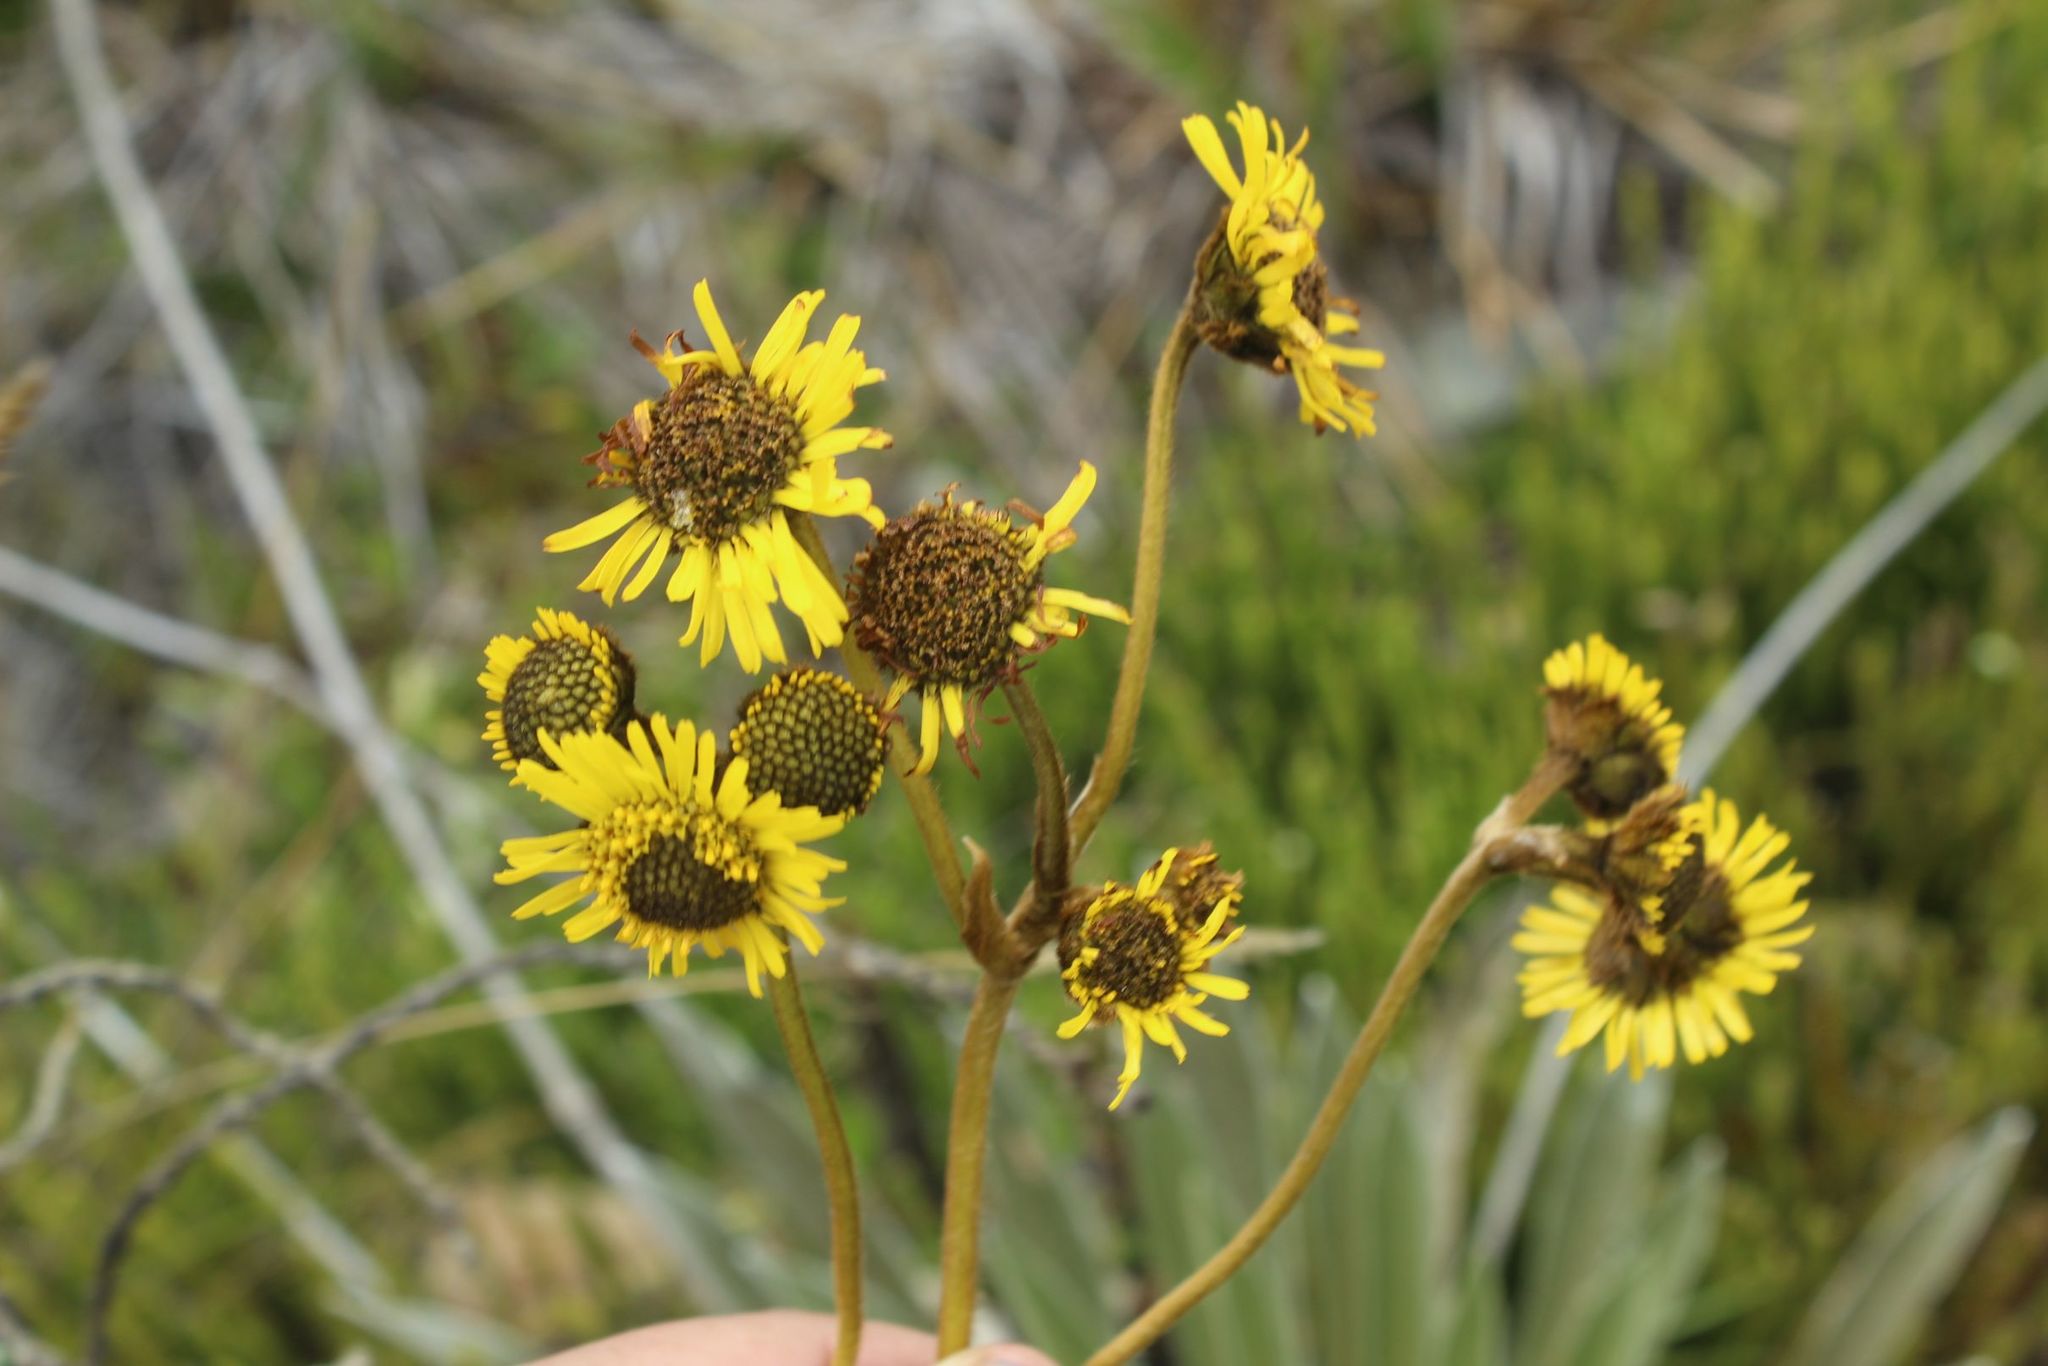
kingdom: Plantae
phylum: Tracheophyta
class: Magnoliopsida
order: Asterales
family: Asteraceae
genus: Espeletia
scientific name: Espeletia boyacensis
